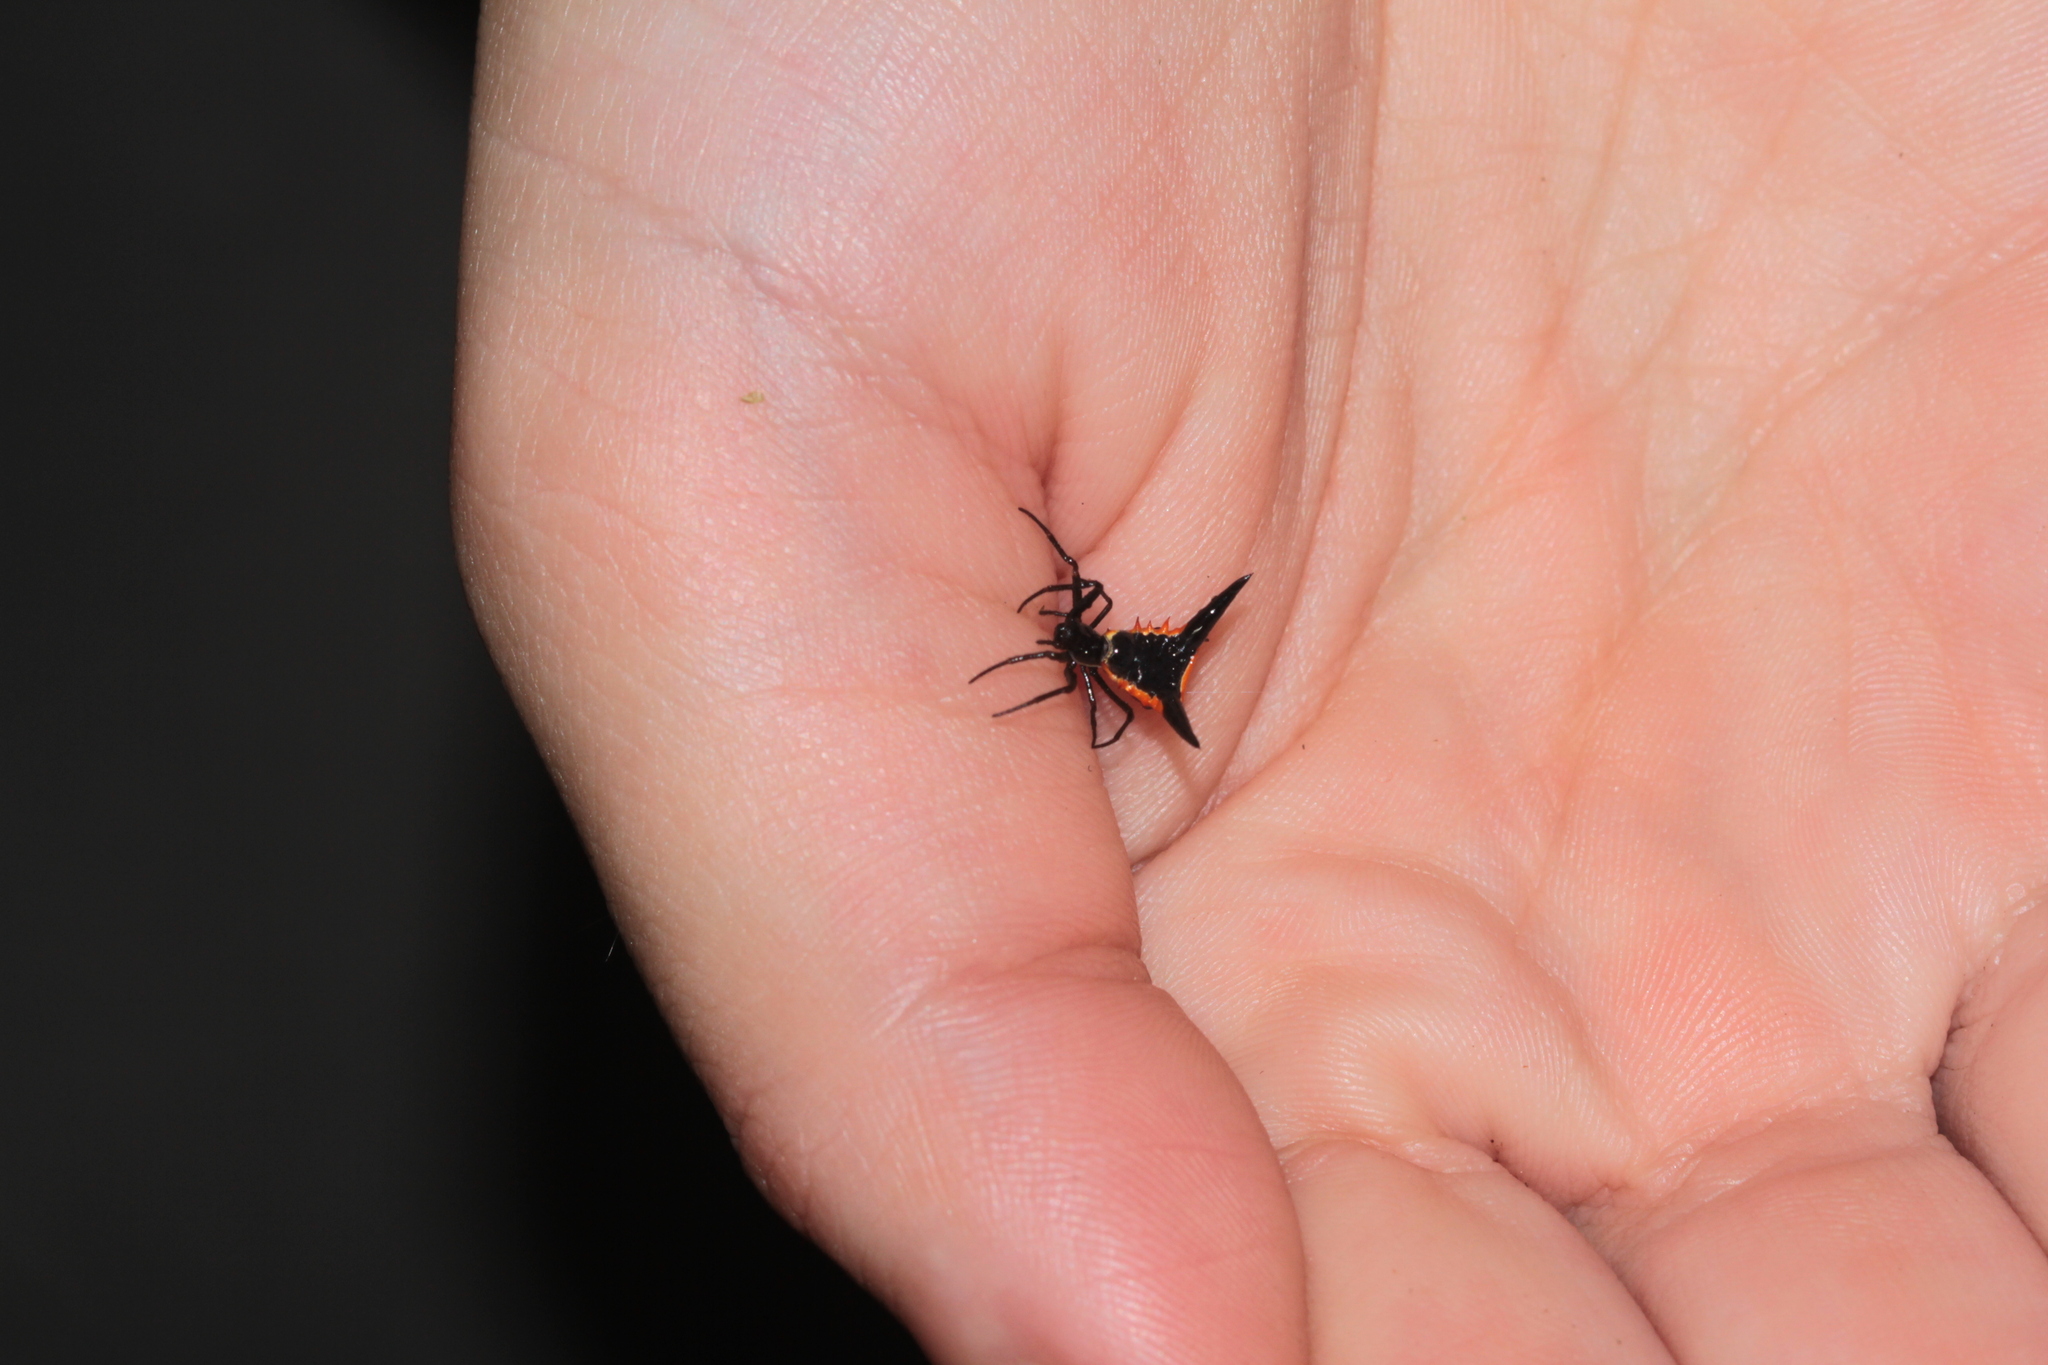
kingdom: Animalia
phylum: Arthropoda
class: Arachnida
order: Araneae
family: Araneidae
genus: Micrathena
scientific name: Micrathena pungens
